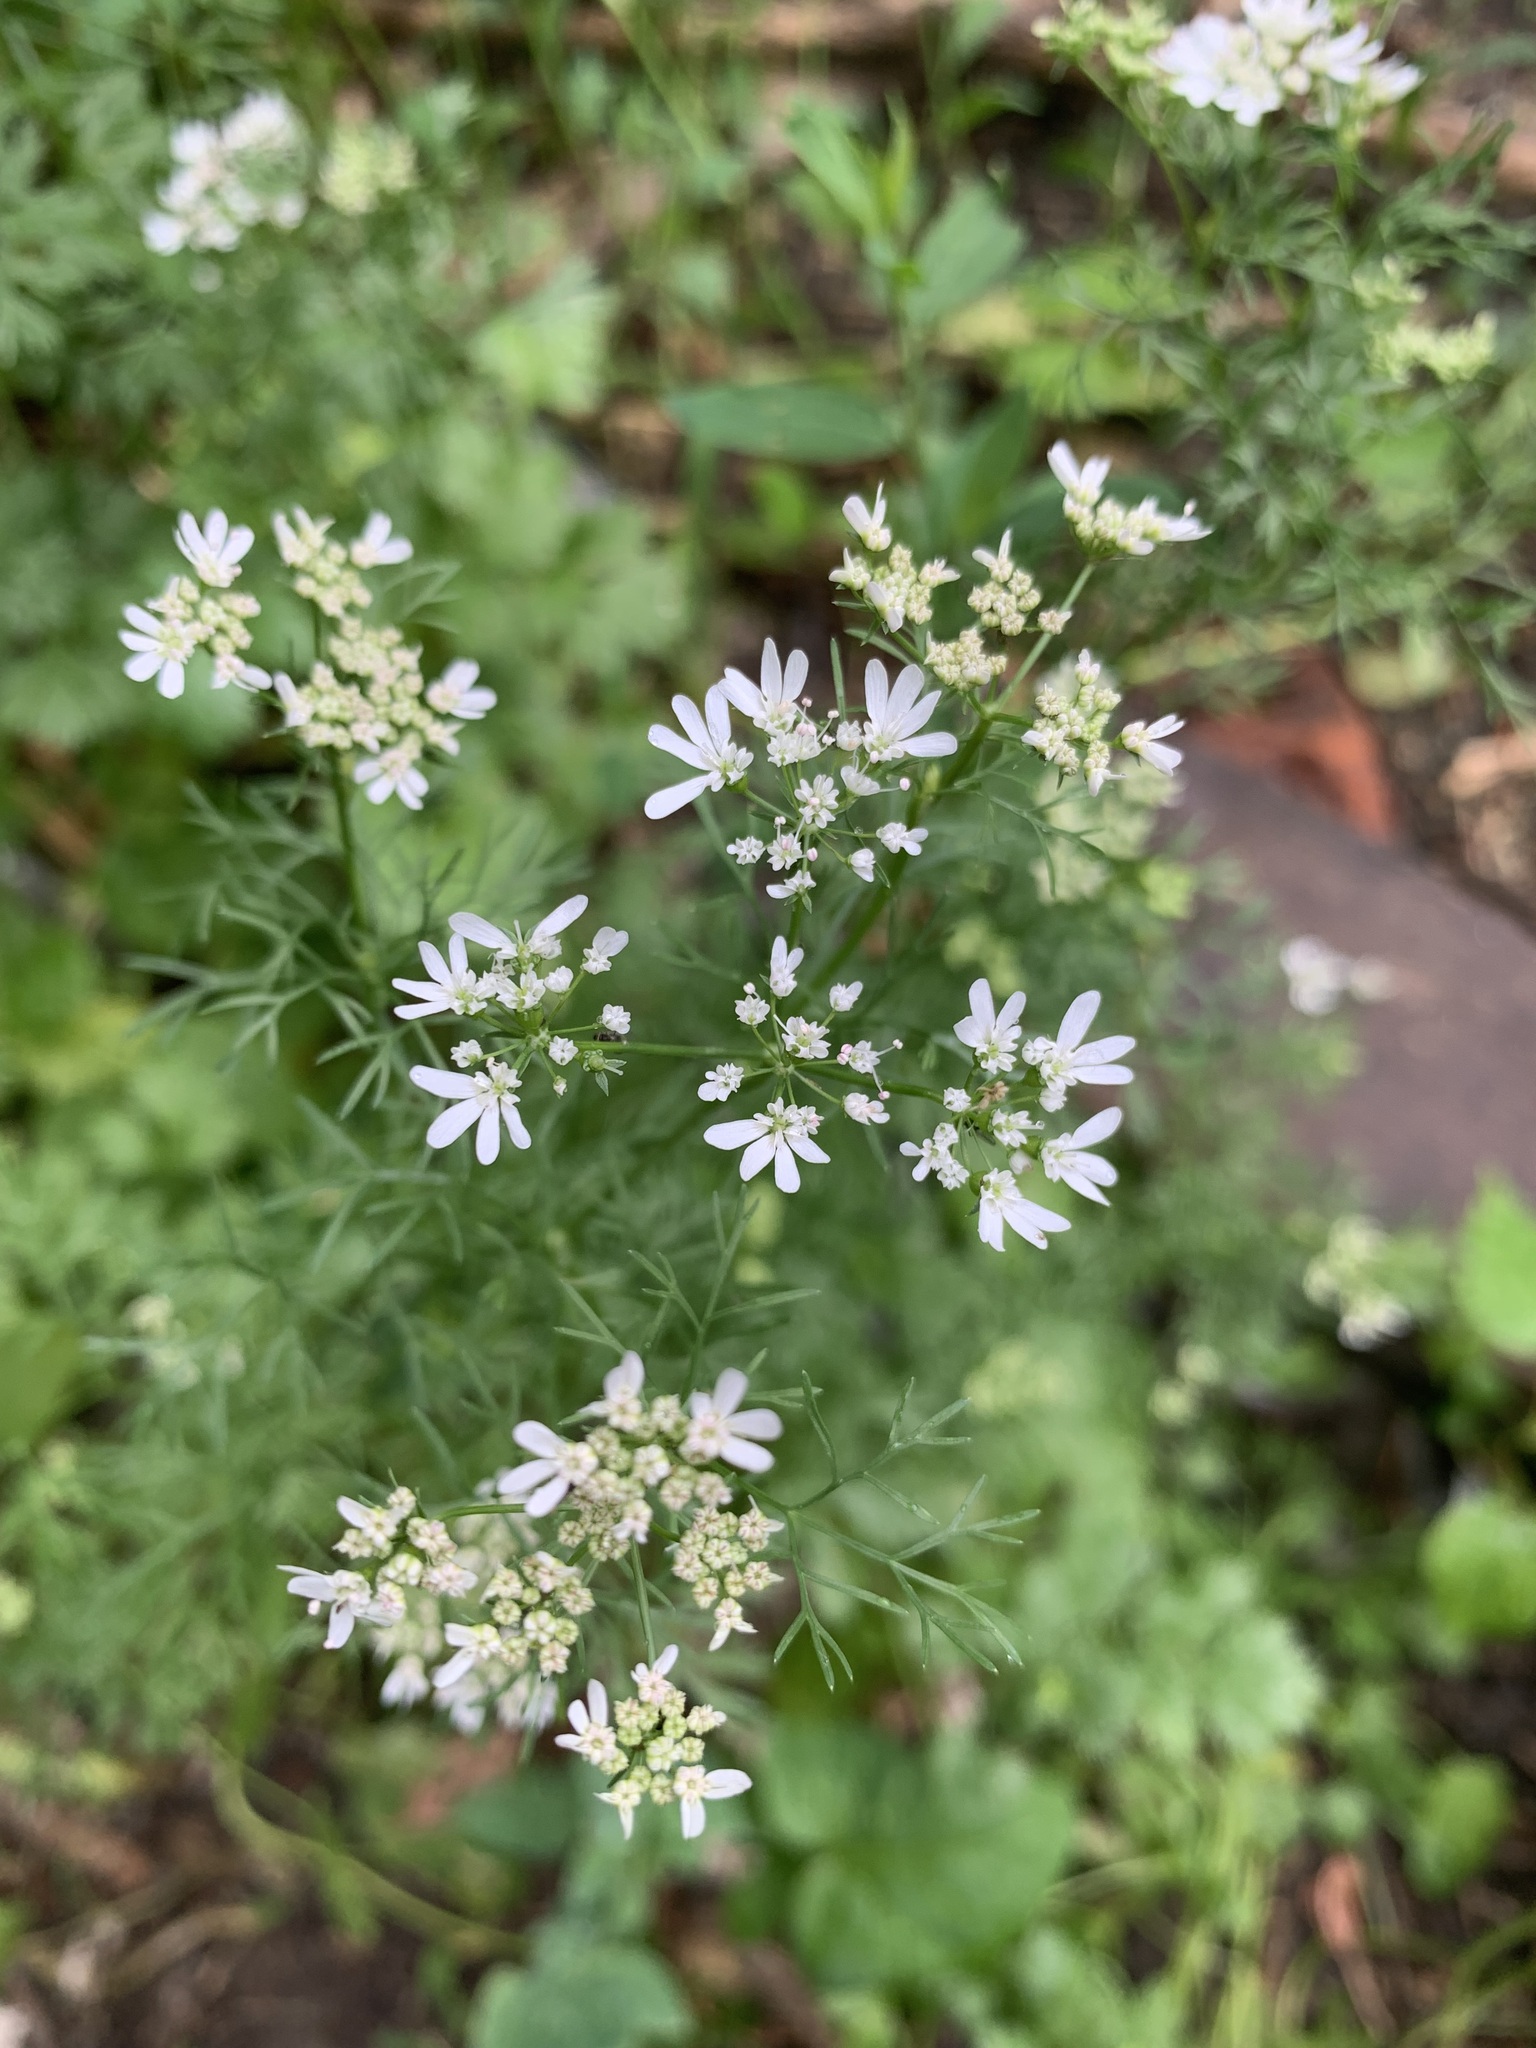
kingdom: Plantae
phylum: Tracheophyta
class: Magnoliopsida
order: Apiales
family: Apiaceae
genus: Coriandrum
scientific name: Coriandrum sativum
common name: Coriander
